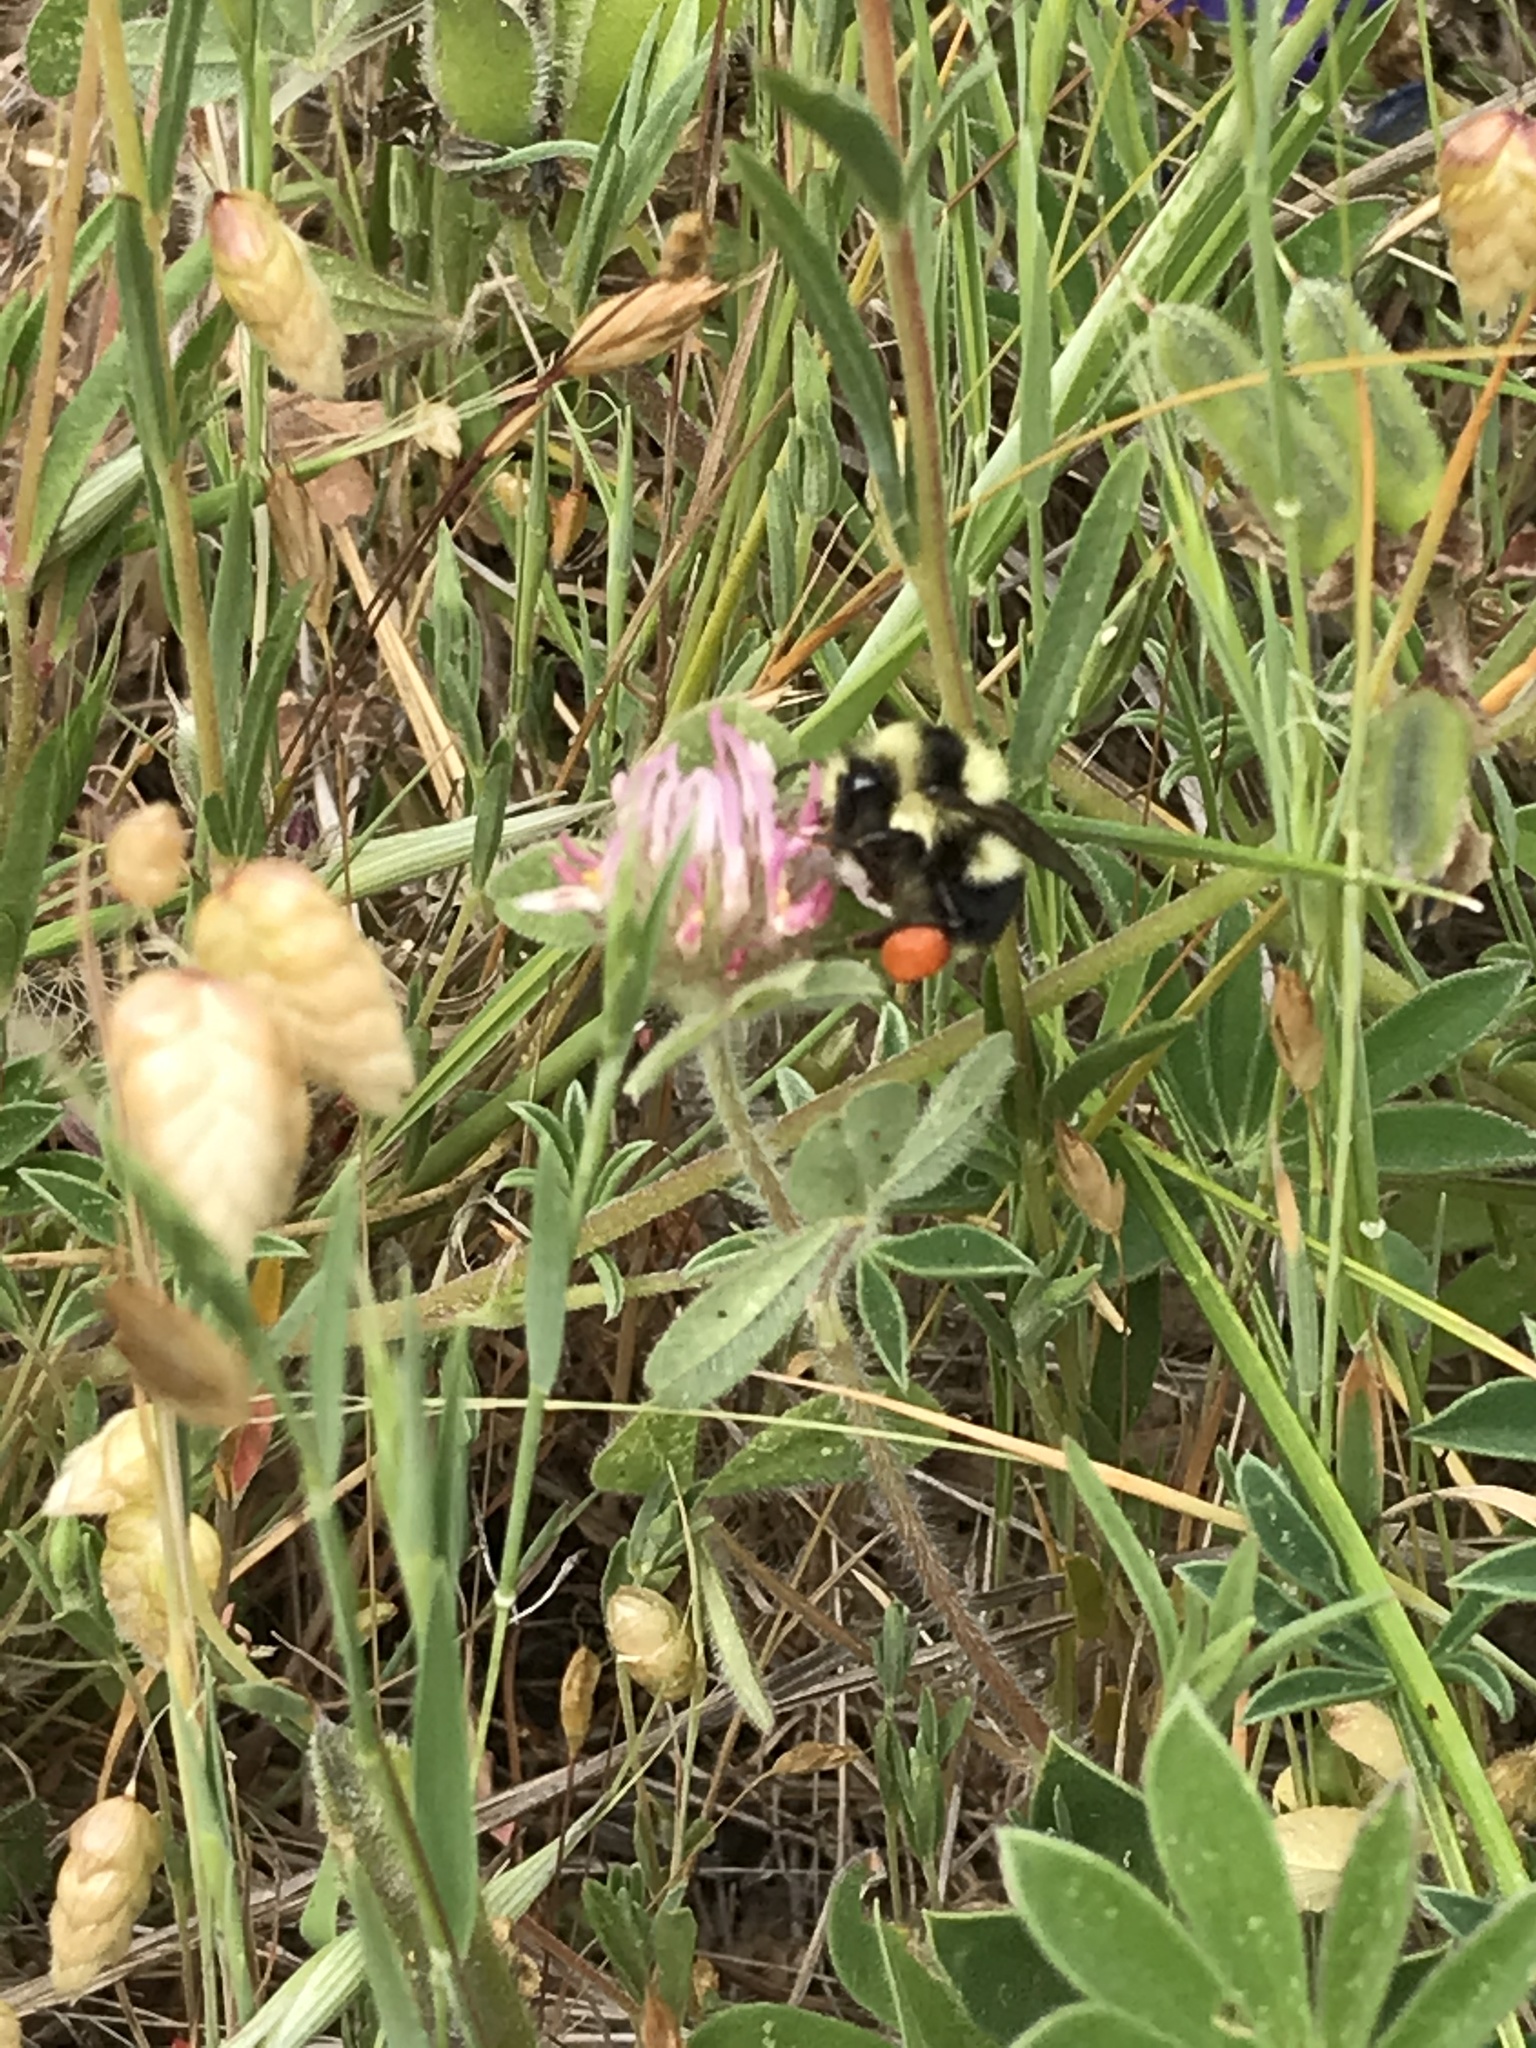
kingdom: Animalia
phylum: Arthropoda
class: Insecta
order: Hymenoptera
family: Apidae
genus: Bombus
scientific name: Bombus melanopygus
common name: Black tail bumble bee
